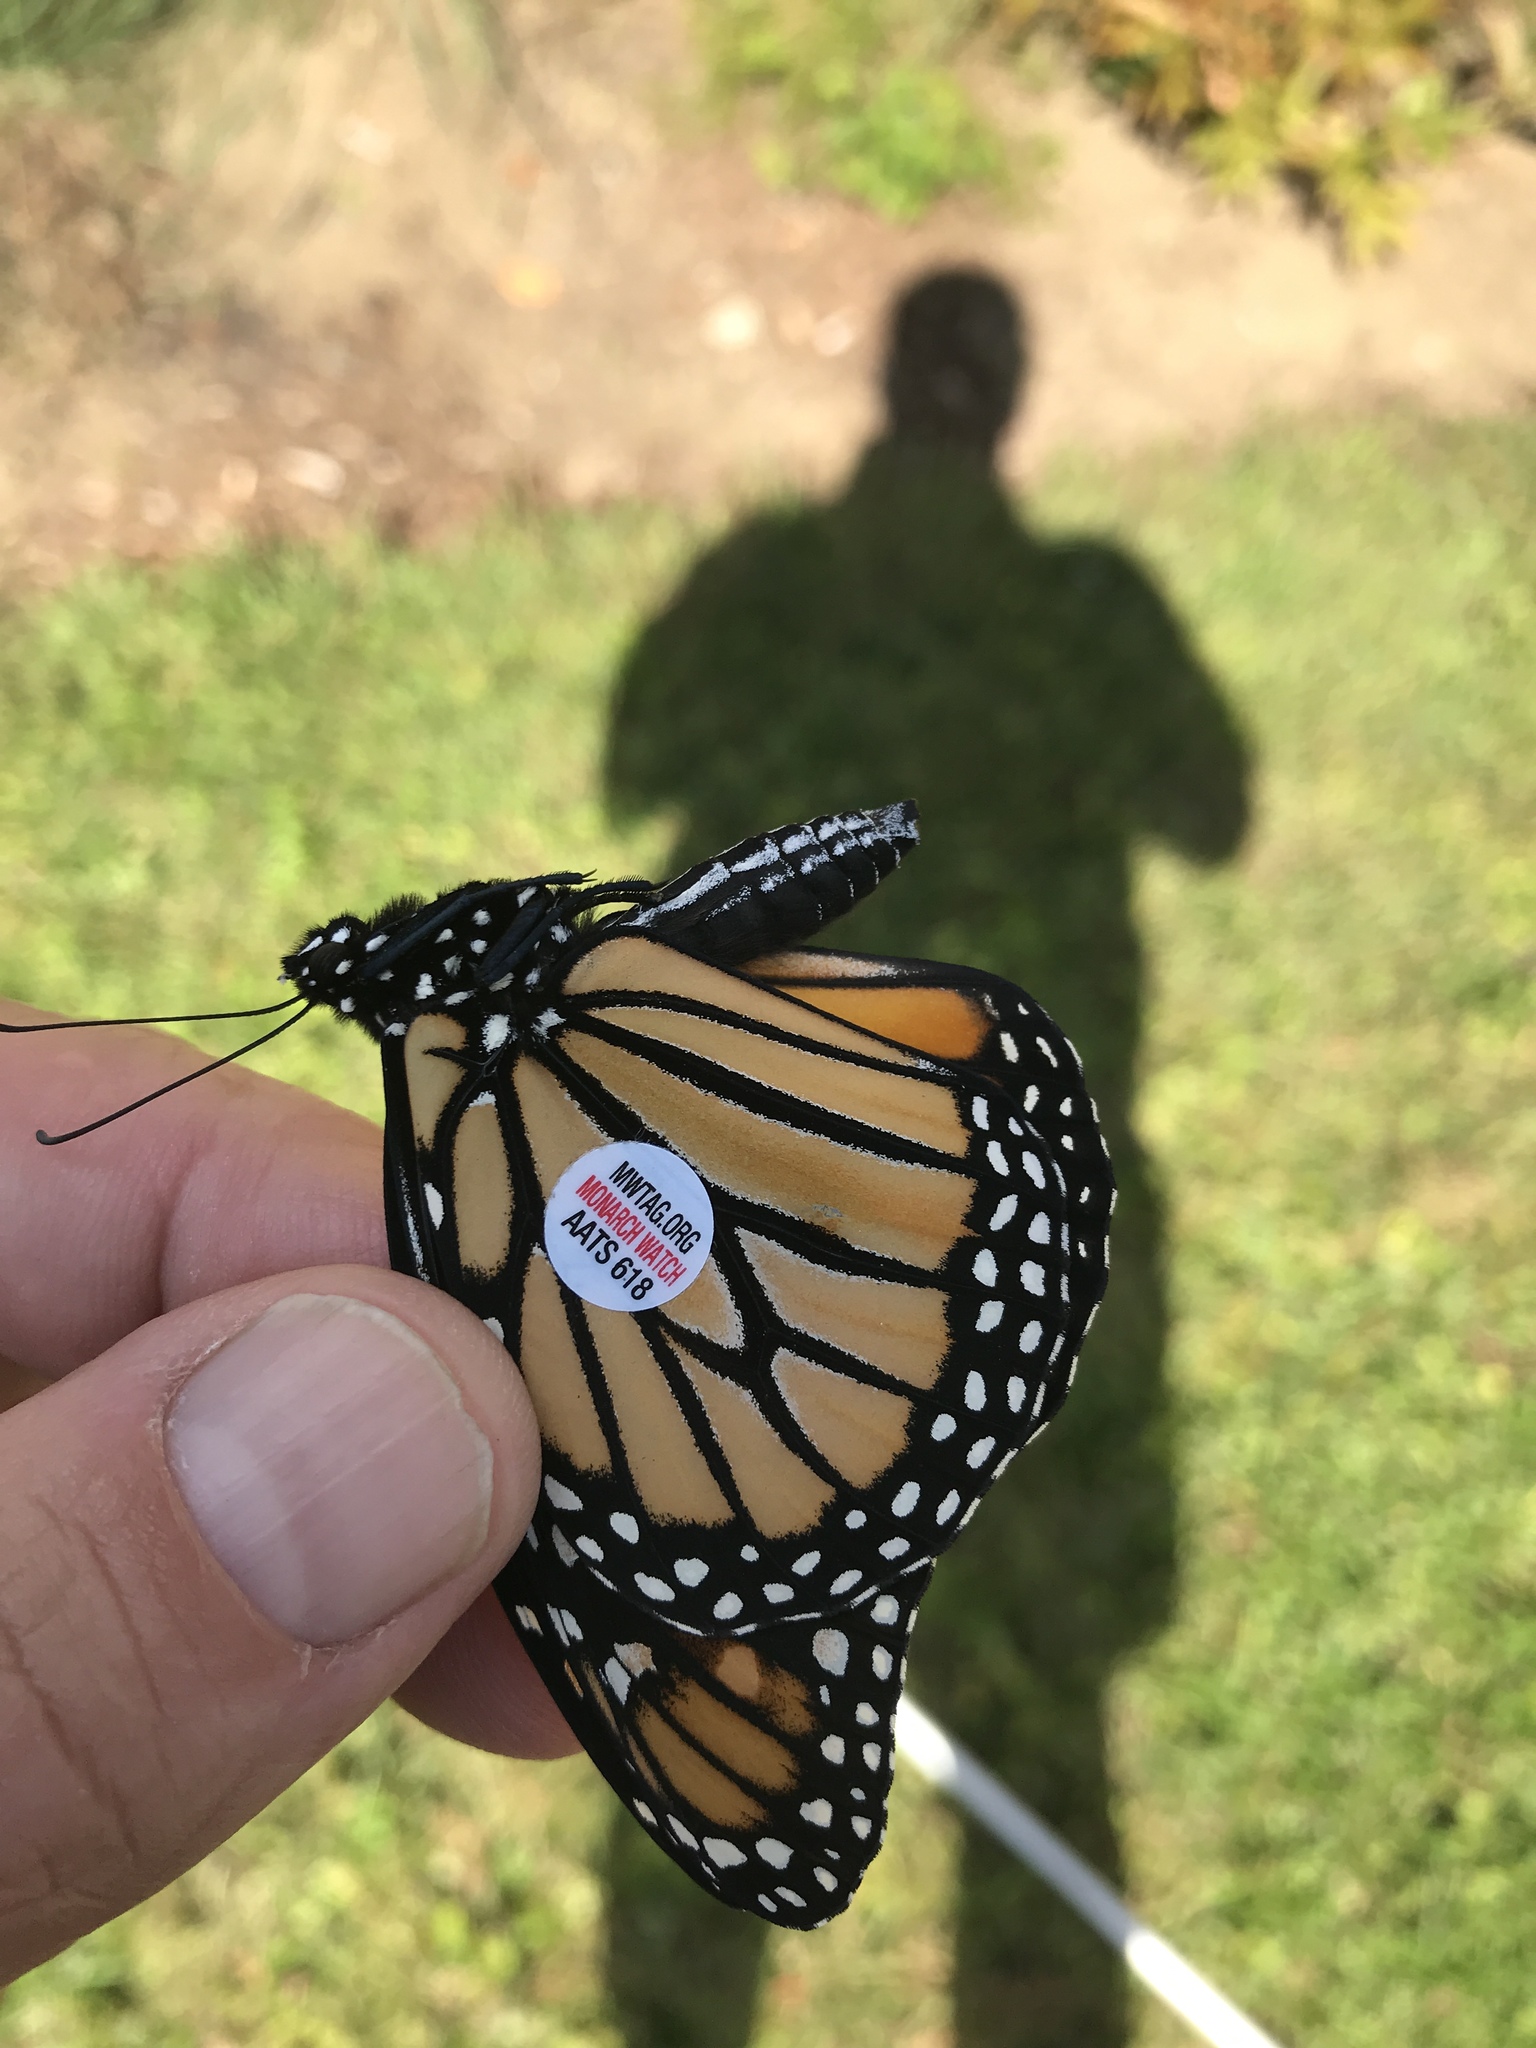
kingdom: Animalia
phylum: Arthropoda
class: Insecta
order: Lepidoptera
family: Nymphalidae
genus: Danaus
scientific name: Danaus plexippus
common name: Monarch
